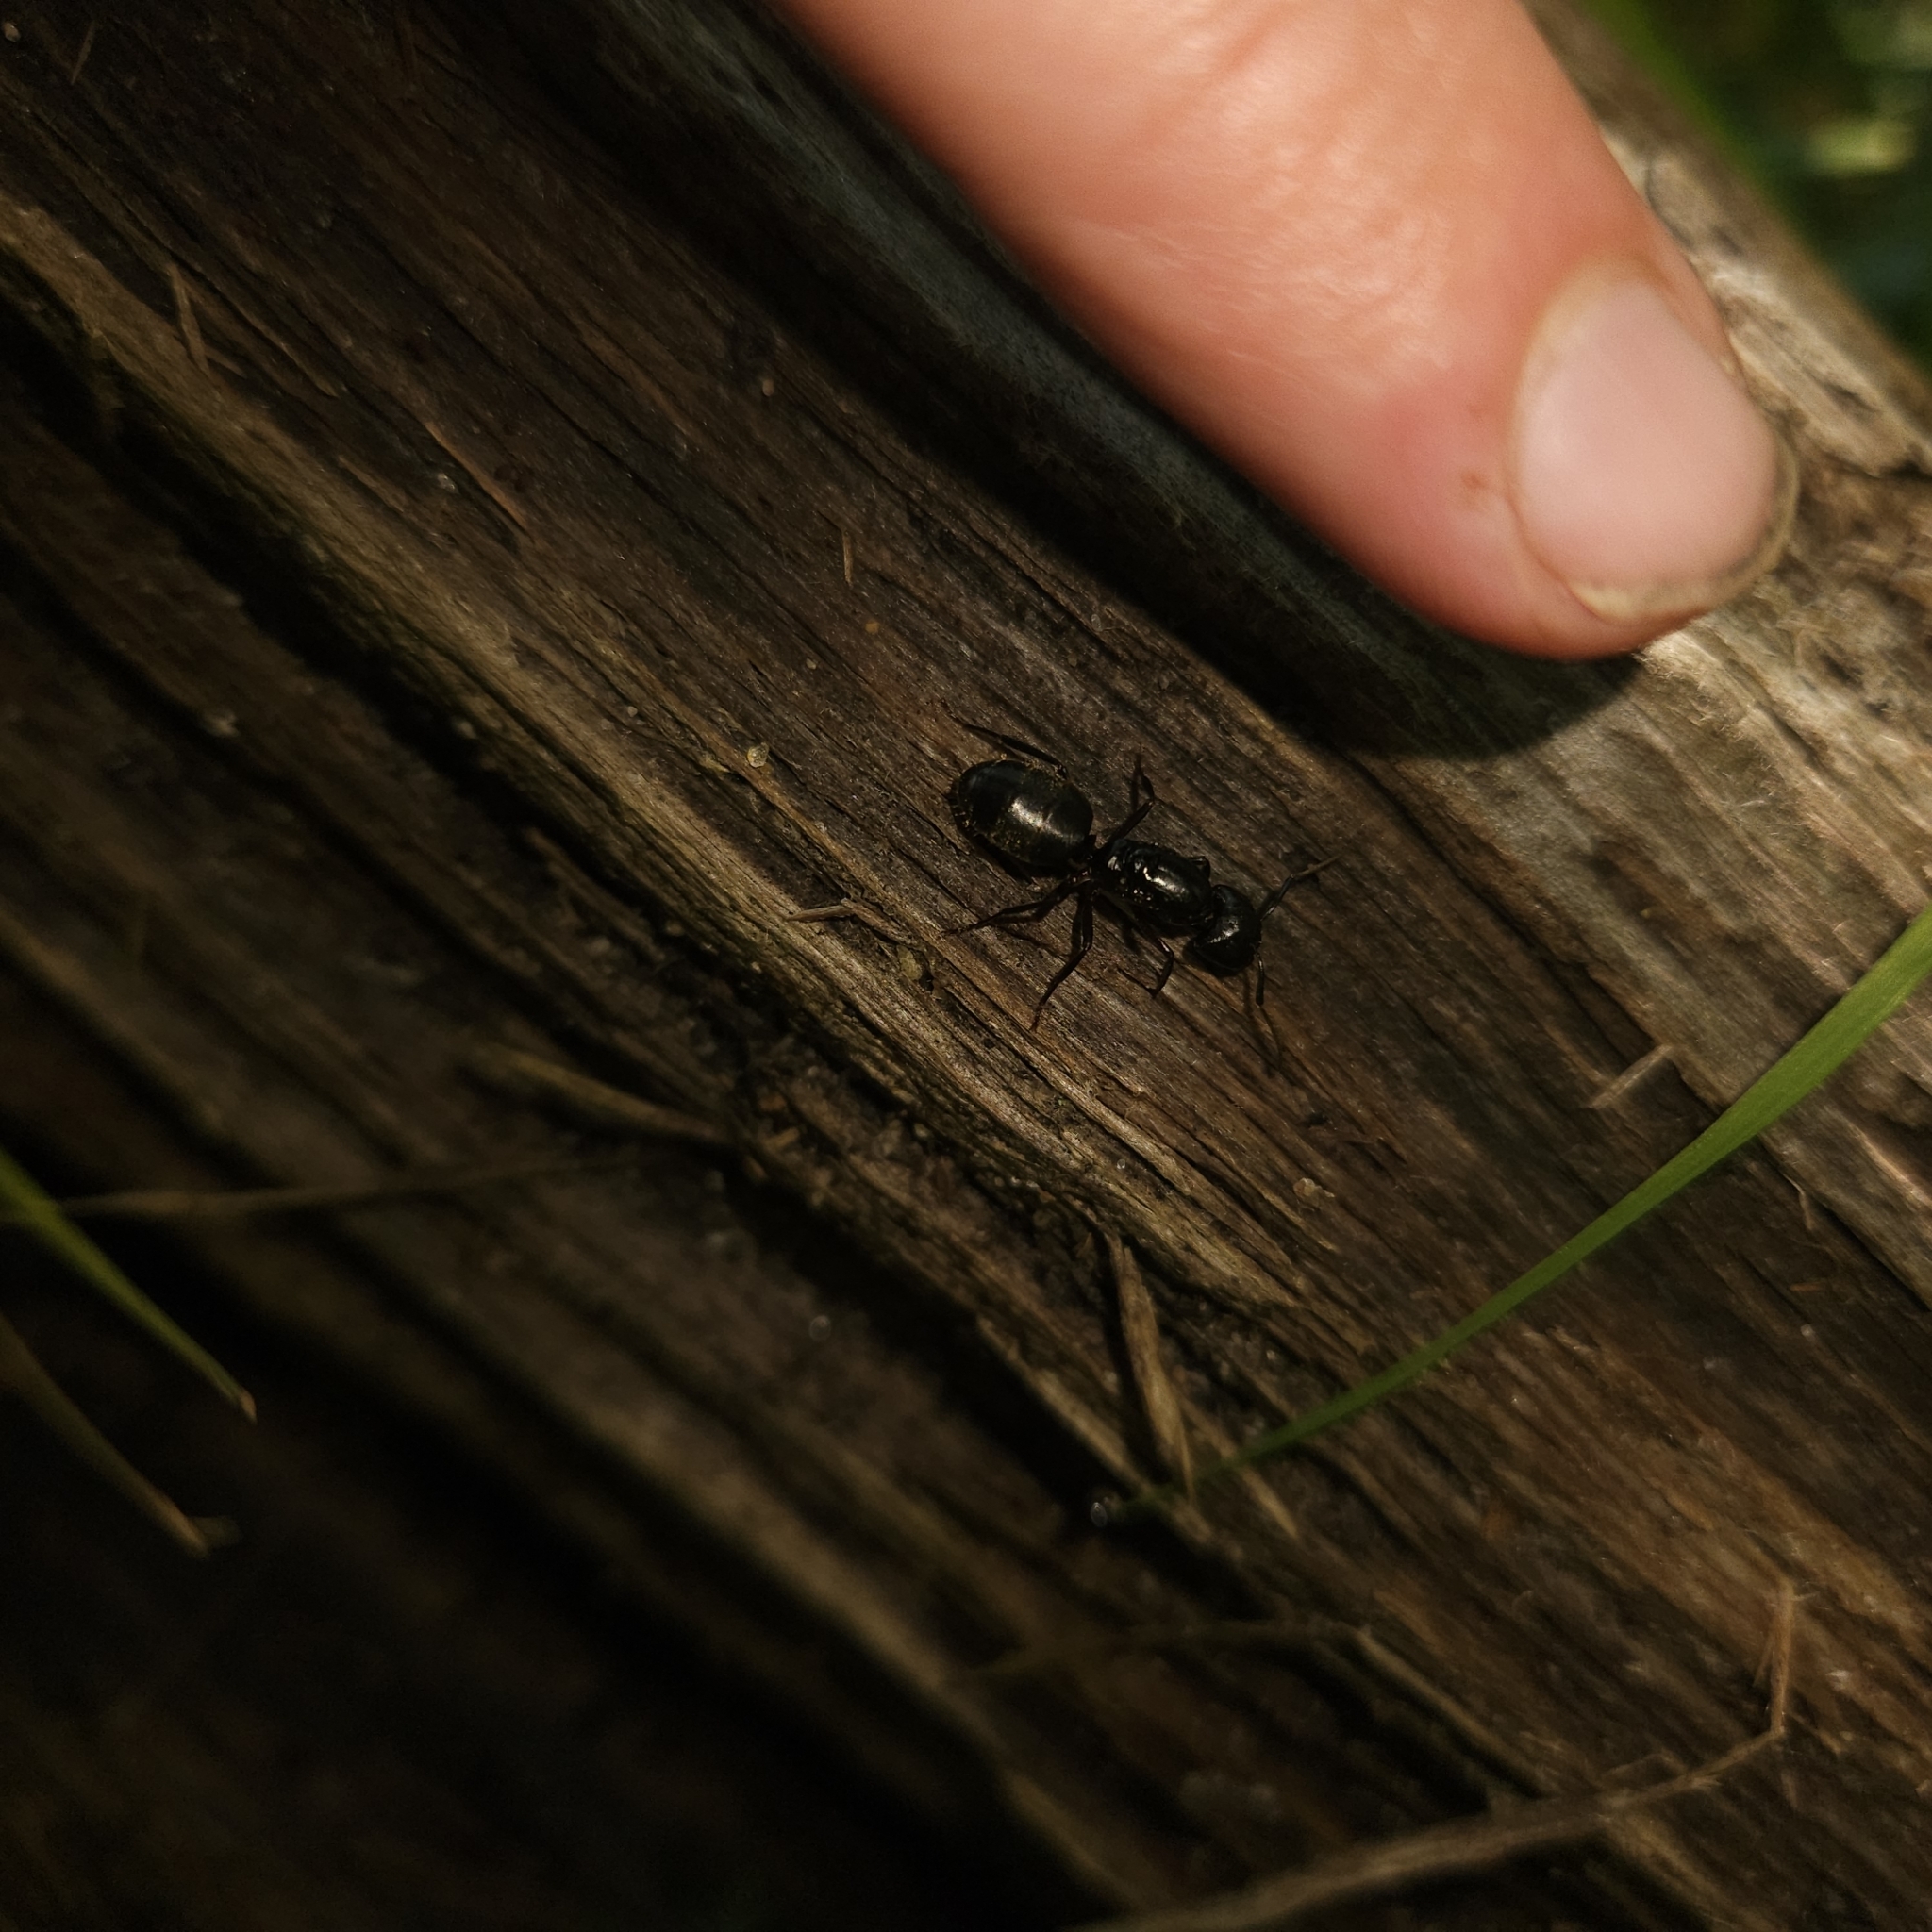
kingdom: Animalia
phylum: Arthropoda
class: Insecta
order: Hymenoptera
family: Formicidae
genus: Camponotus
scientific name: Camponotus pennsylvanicus
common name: Black carpenter ant
